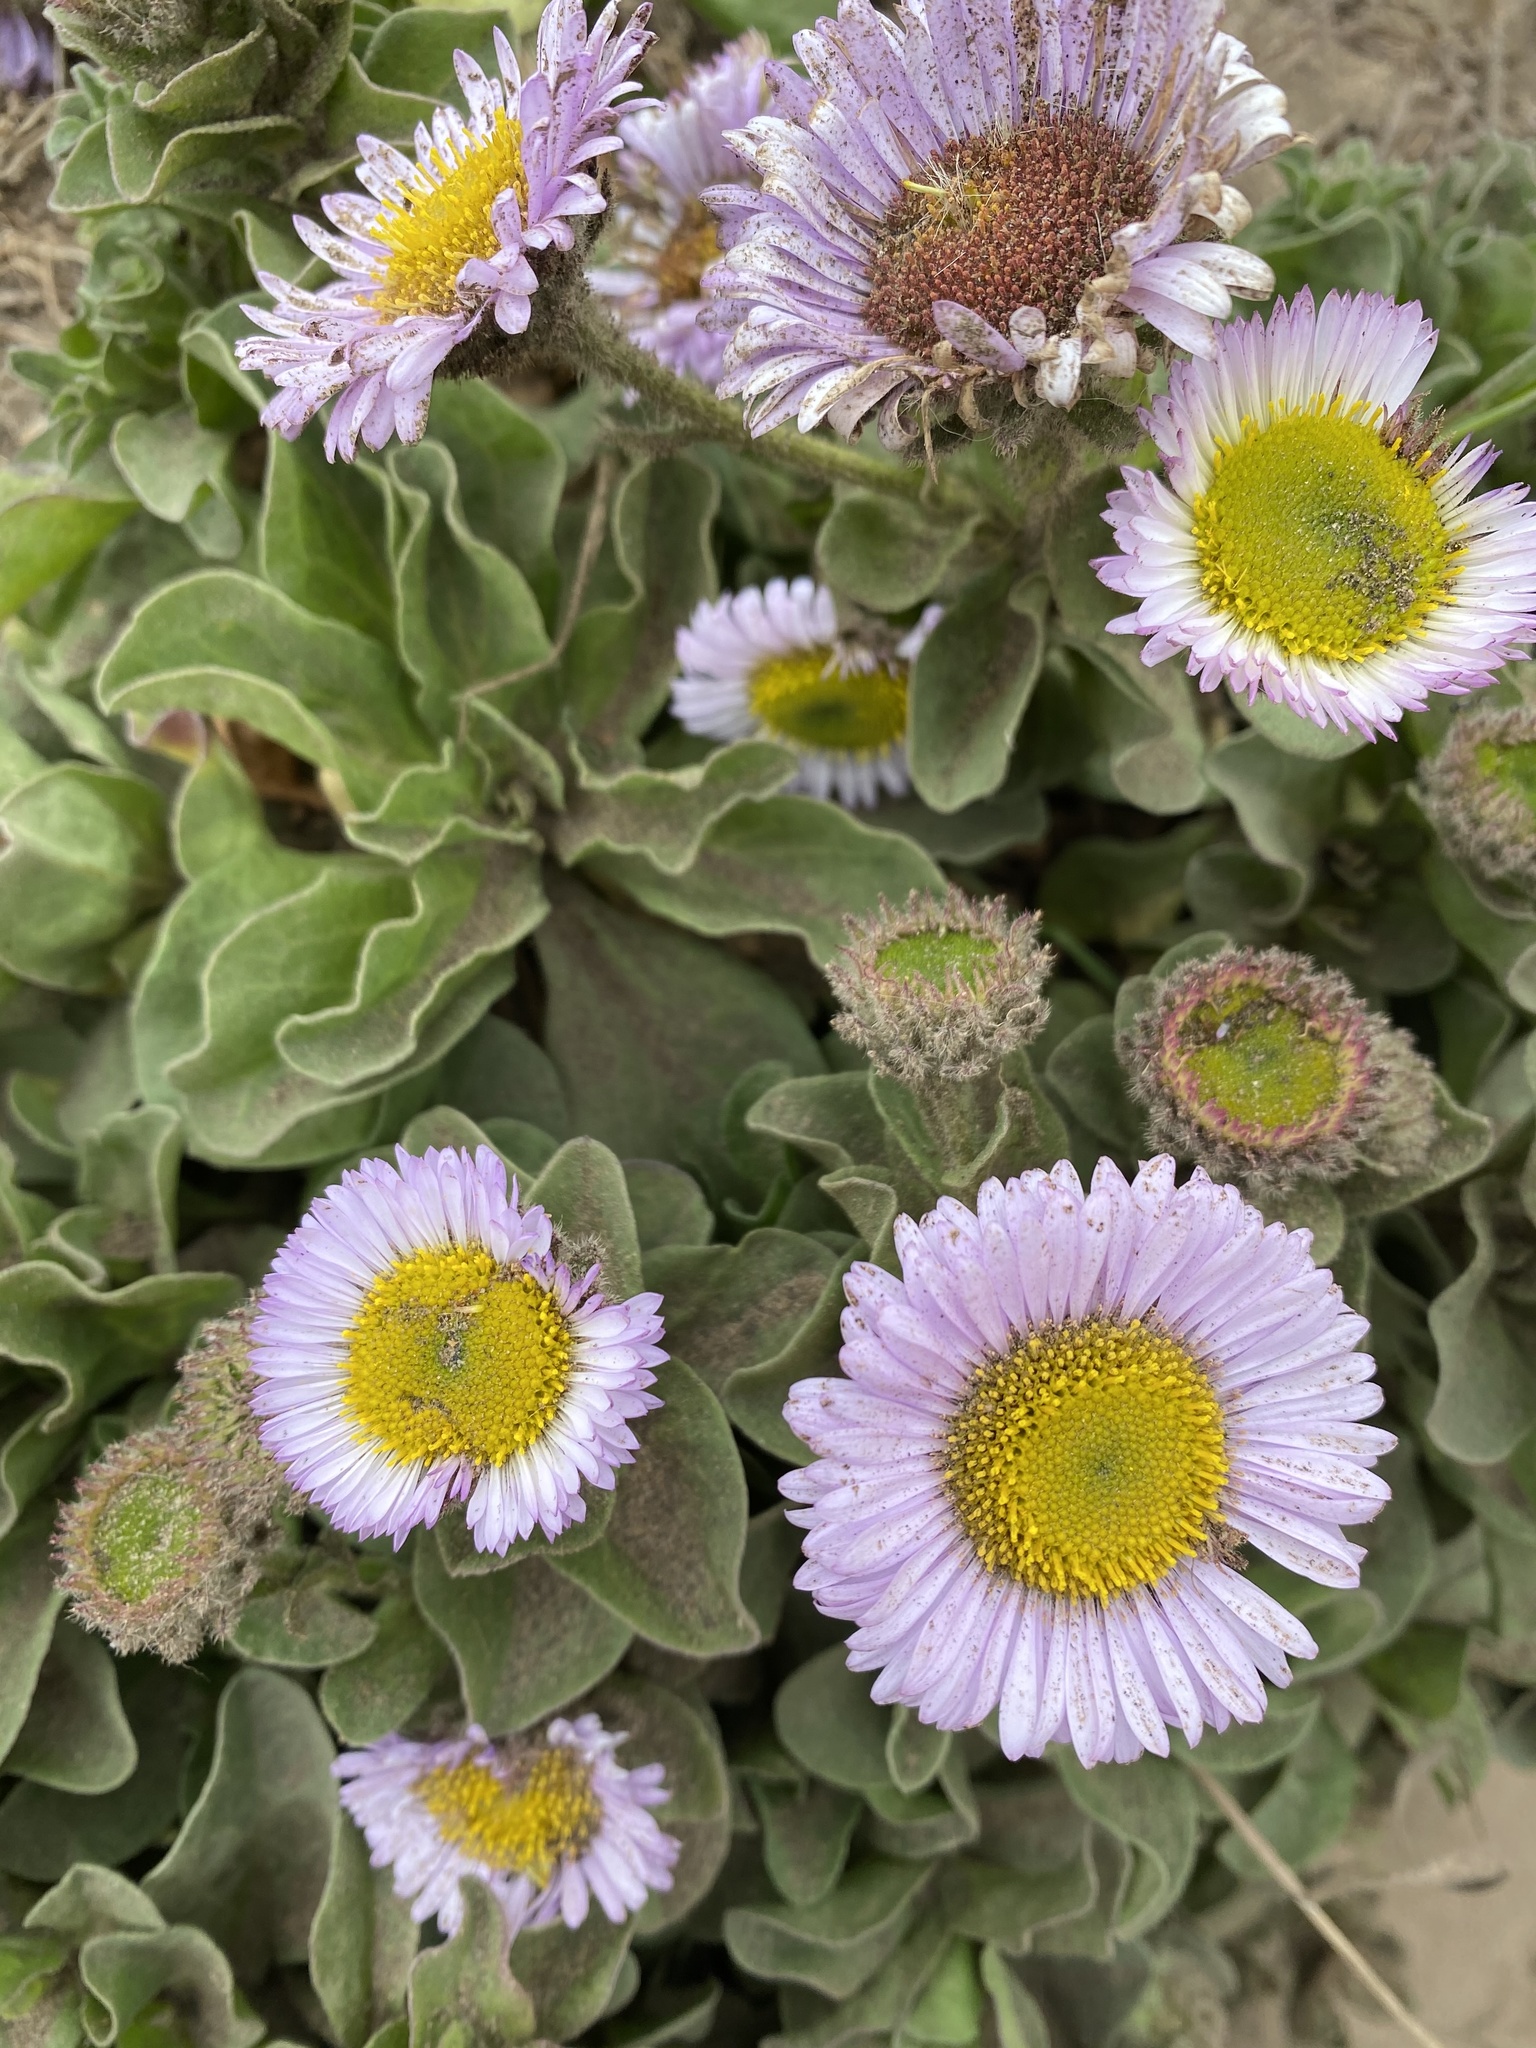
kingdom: Plantae
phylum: Tracheophyta
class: Magnoliopsida
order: Asterales
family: Asteraceae
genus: Erigeron
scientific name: Erigeron glaucus
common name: Seaside daisy
